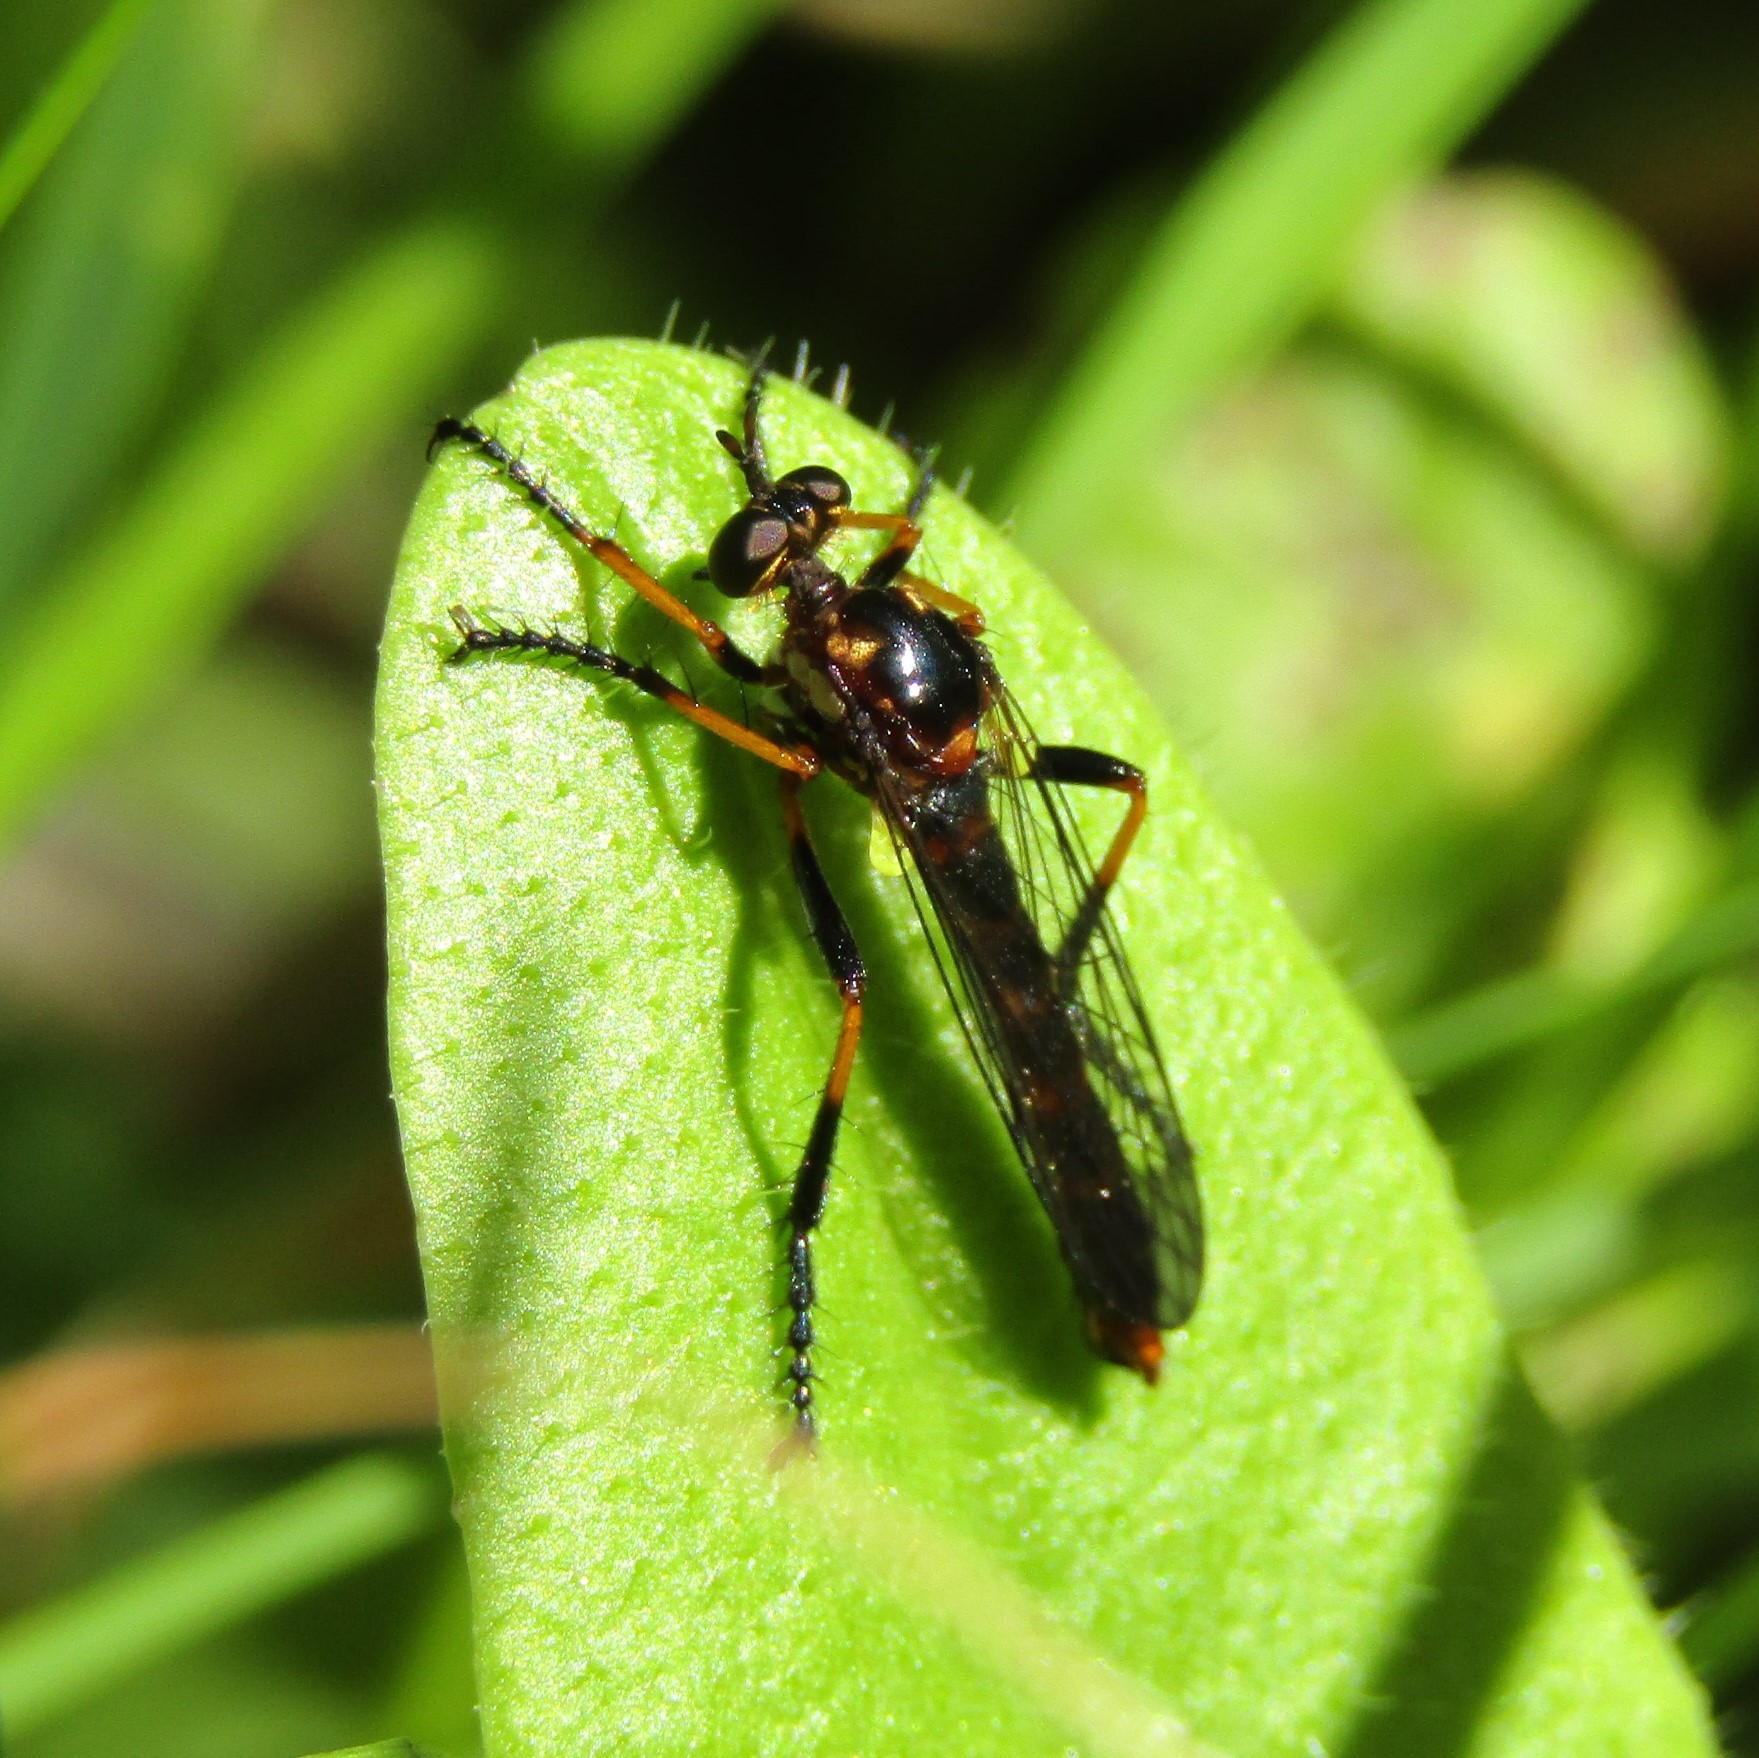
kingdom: Animalia
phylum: Arthropoda
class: Insecta
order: Diptera
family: Asilidae
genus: Saropogon
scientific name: Saropogon fascipes
